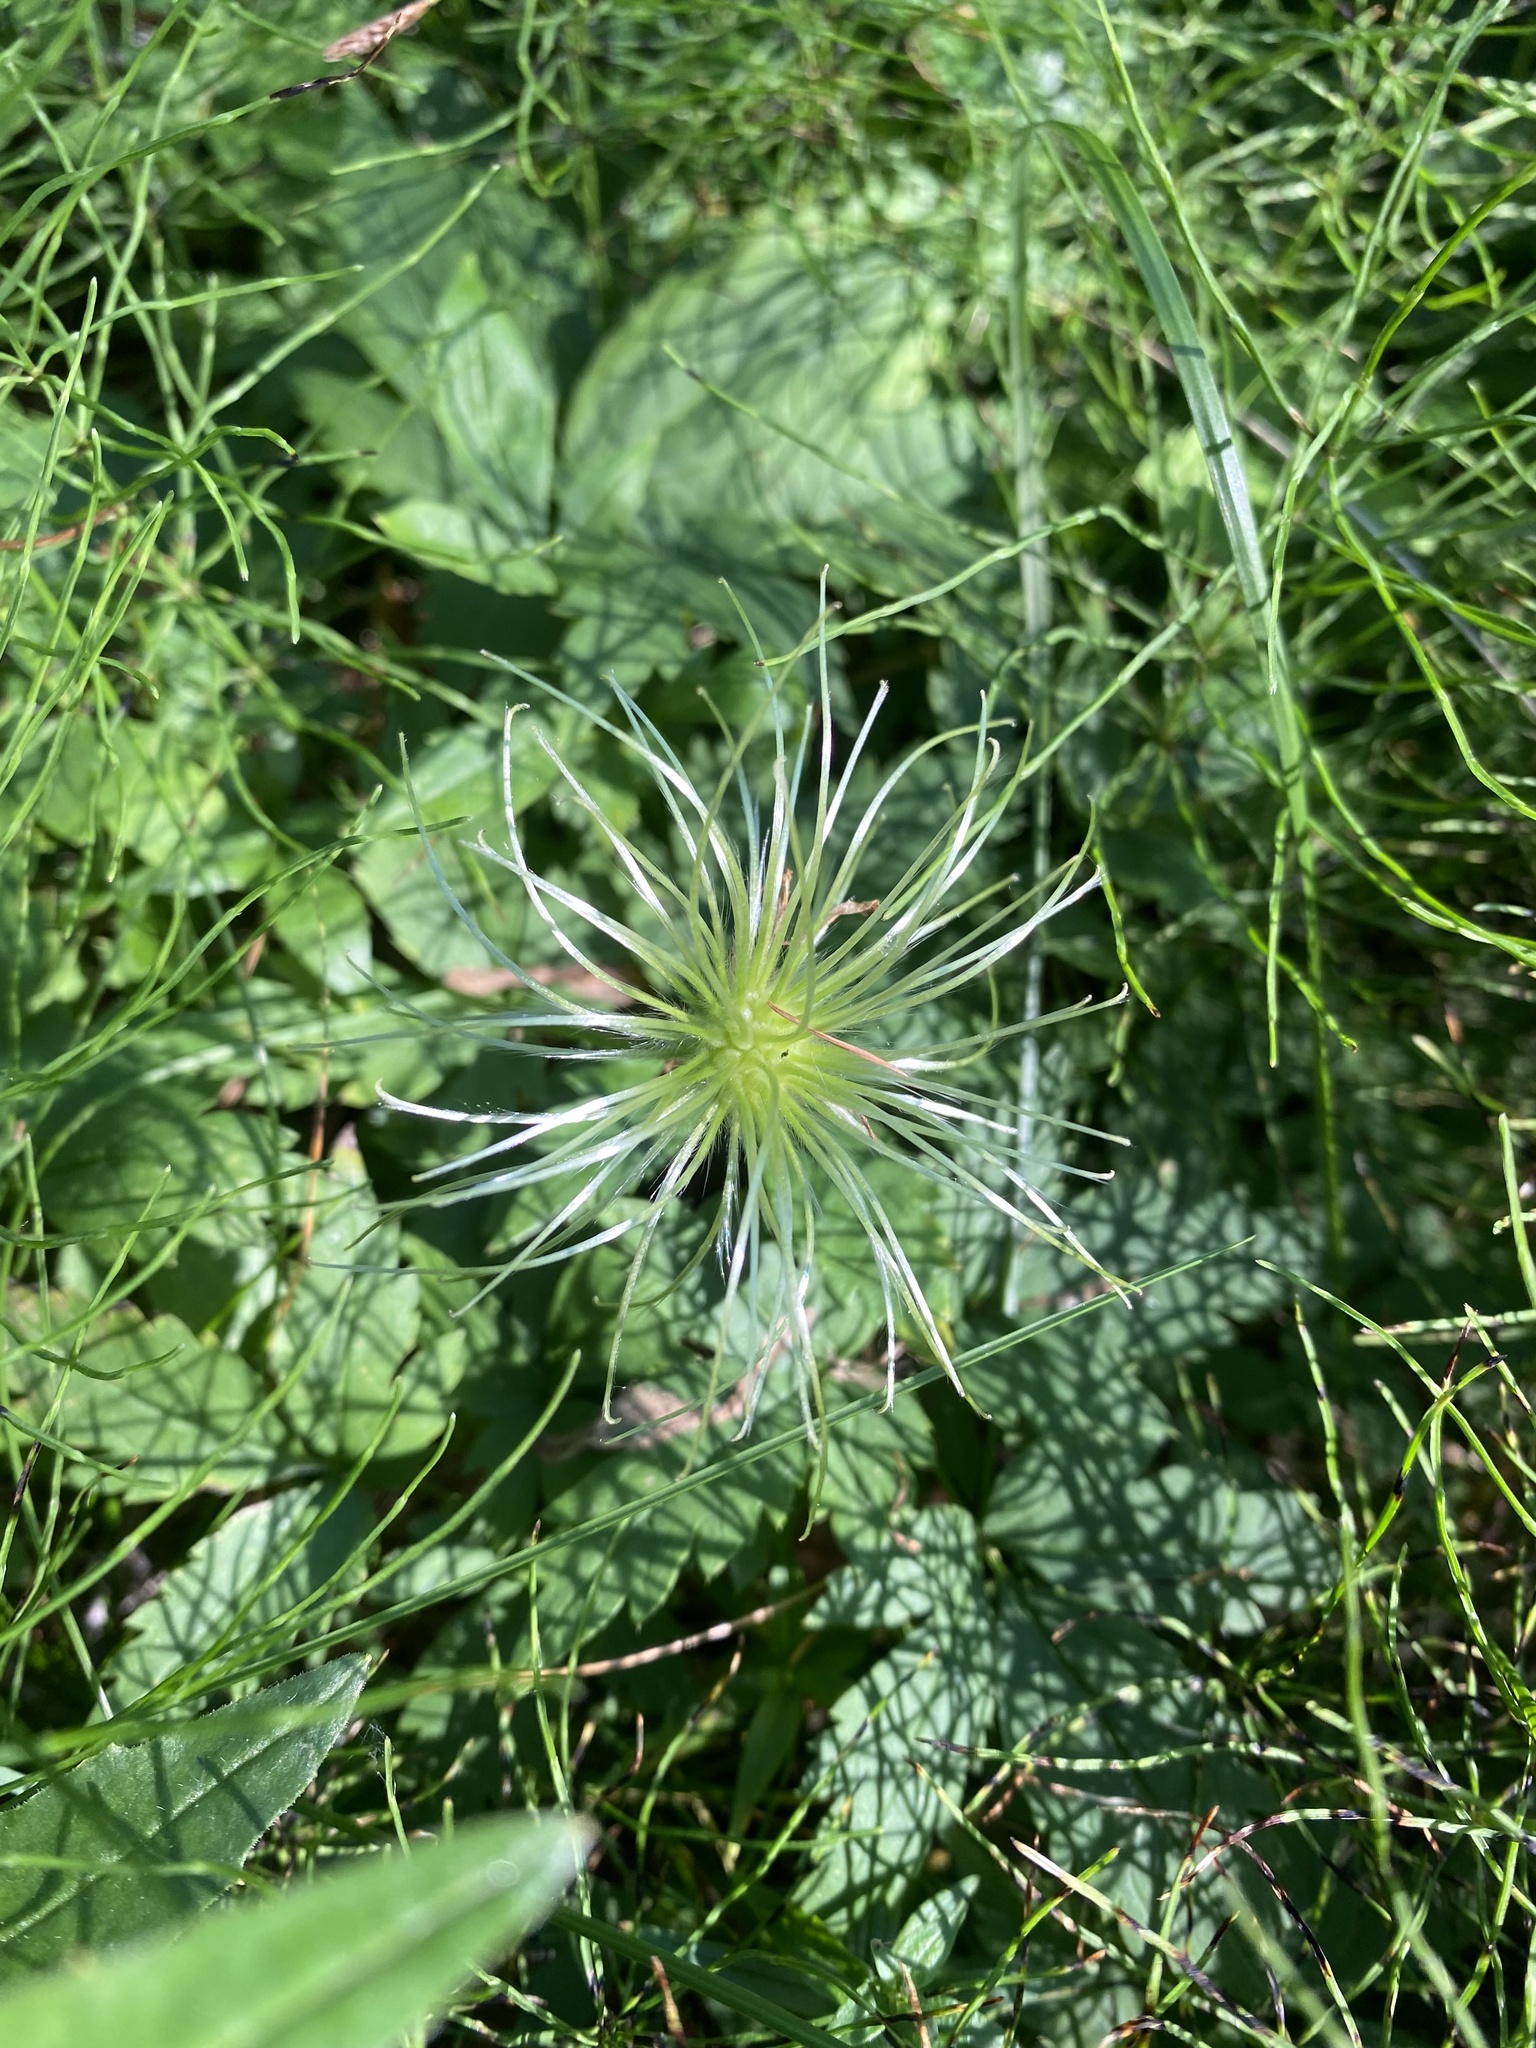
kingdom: Plantae
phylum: Tracheophyta
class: Magnoliopsida
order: Ranunculales
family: Ranunculaceae
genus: Clematis
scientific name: Clematis sibirica
